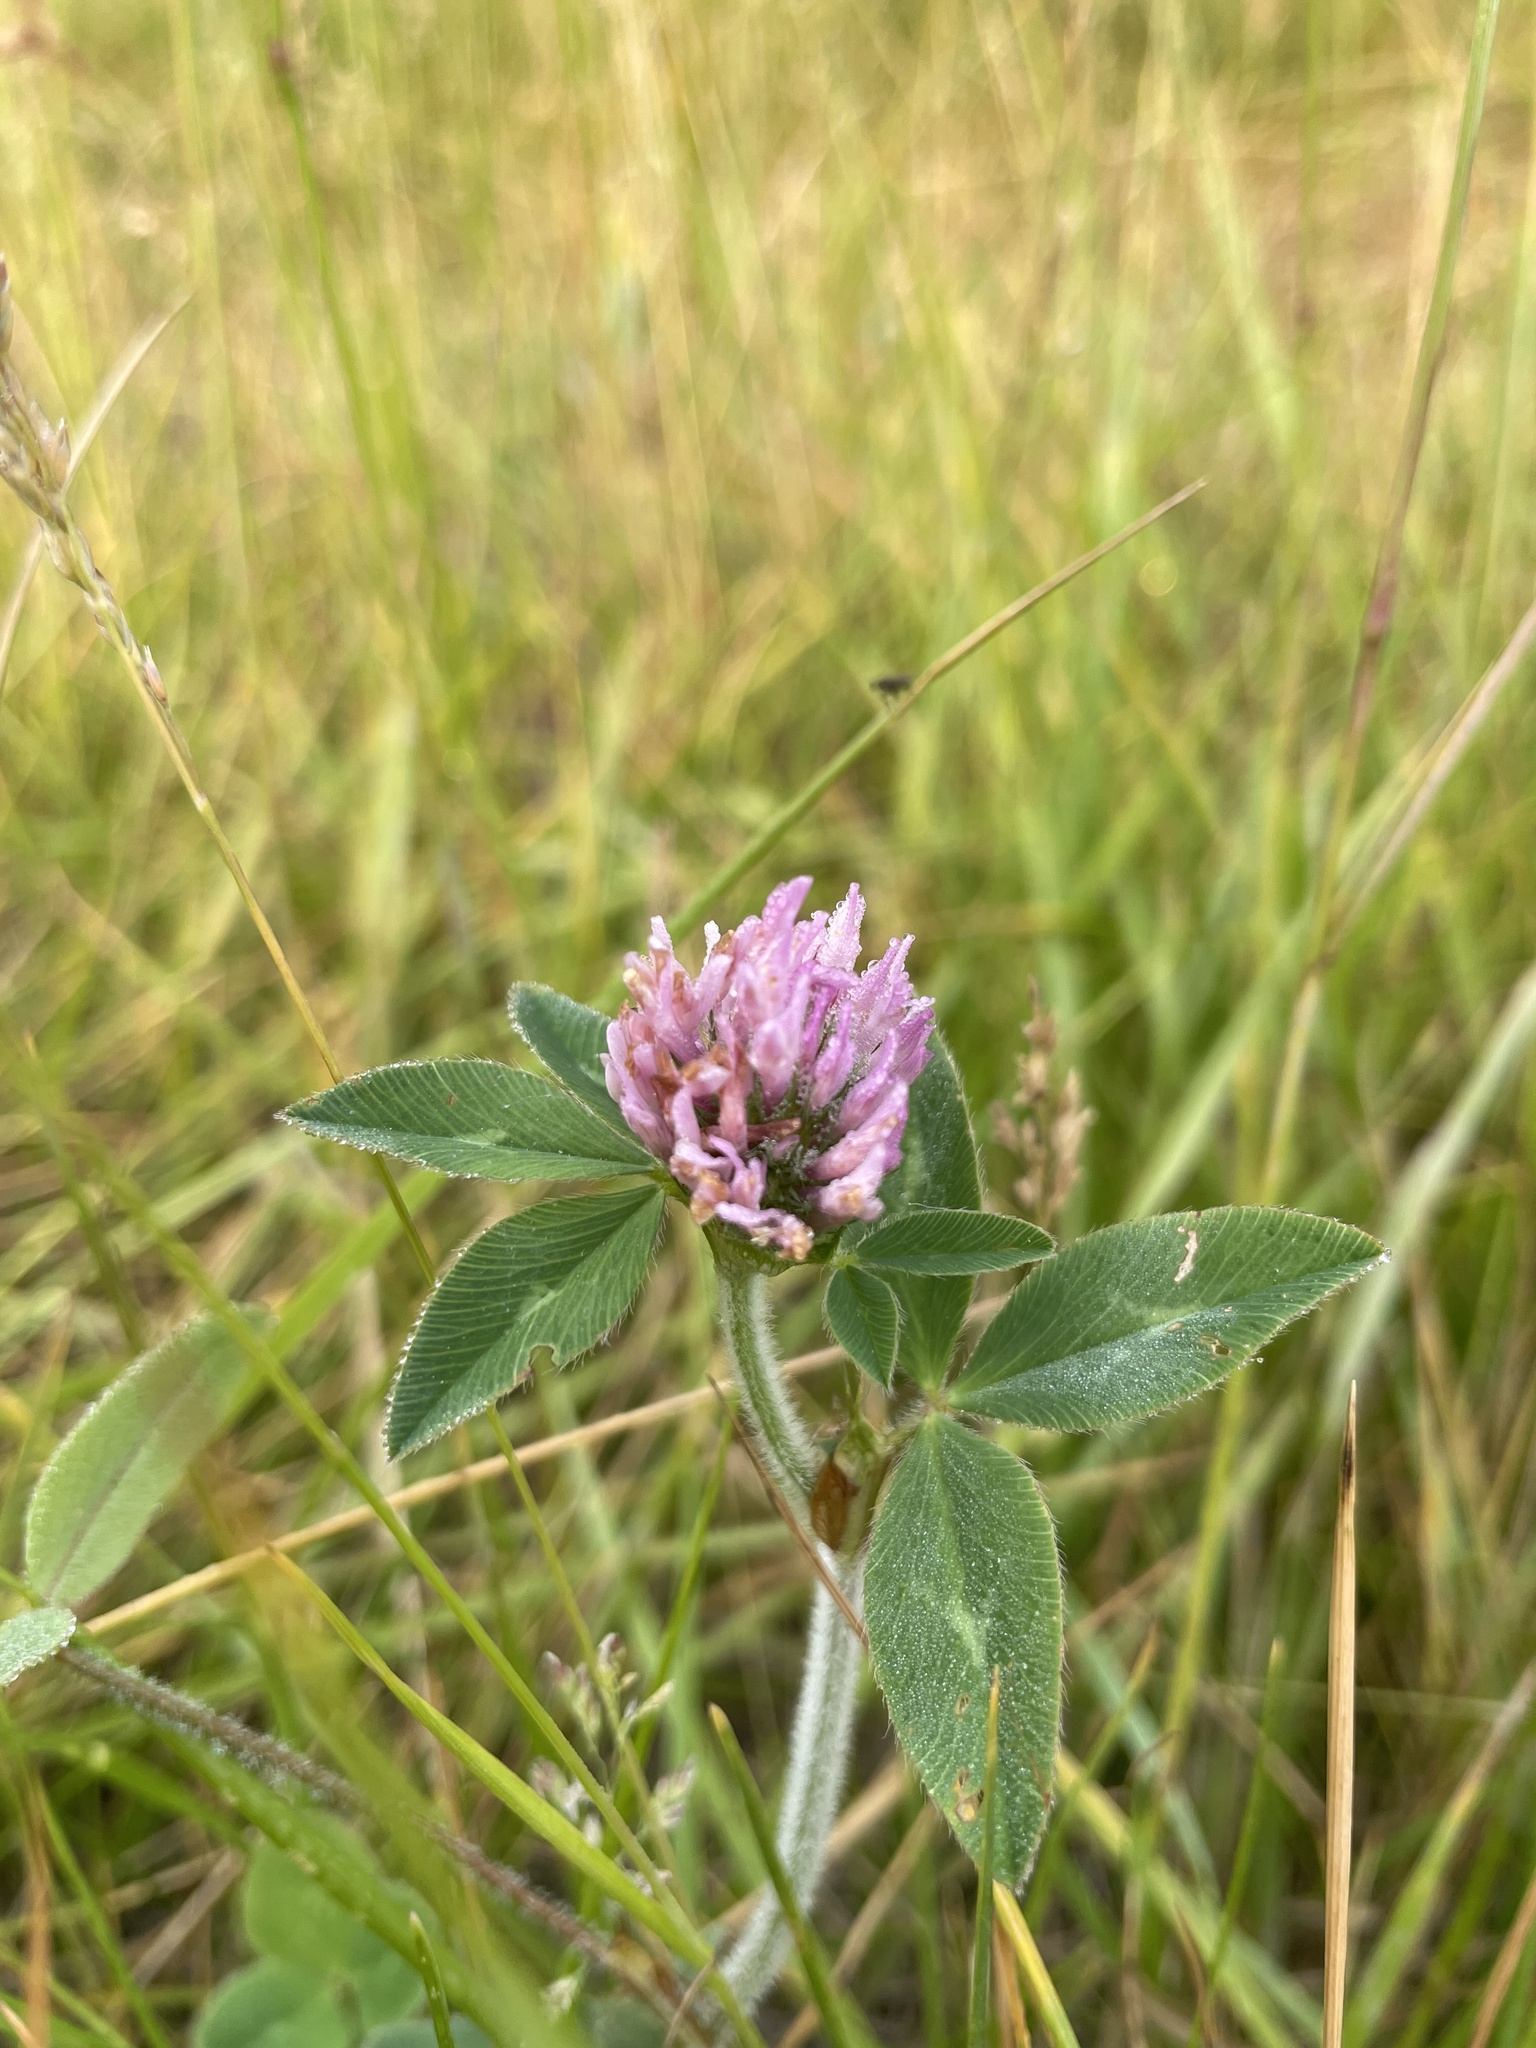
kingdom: Plantae
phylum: Tracheophyta
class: Magnoliopsida
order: Fabales
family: Fabaceae
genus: Trifolium
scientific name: Trifolium pratense
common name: Red clover
